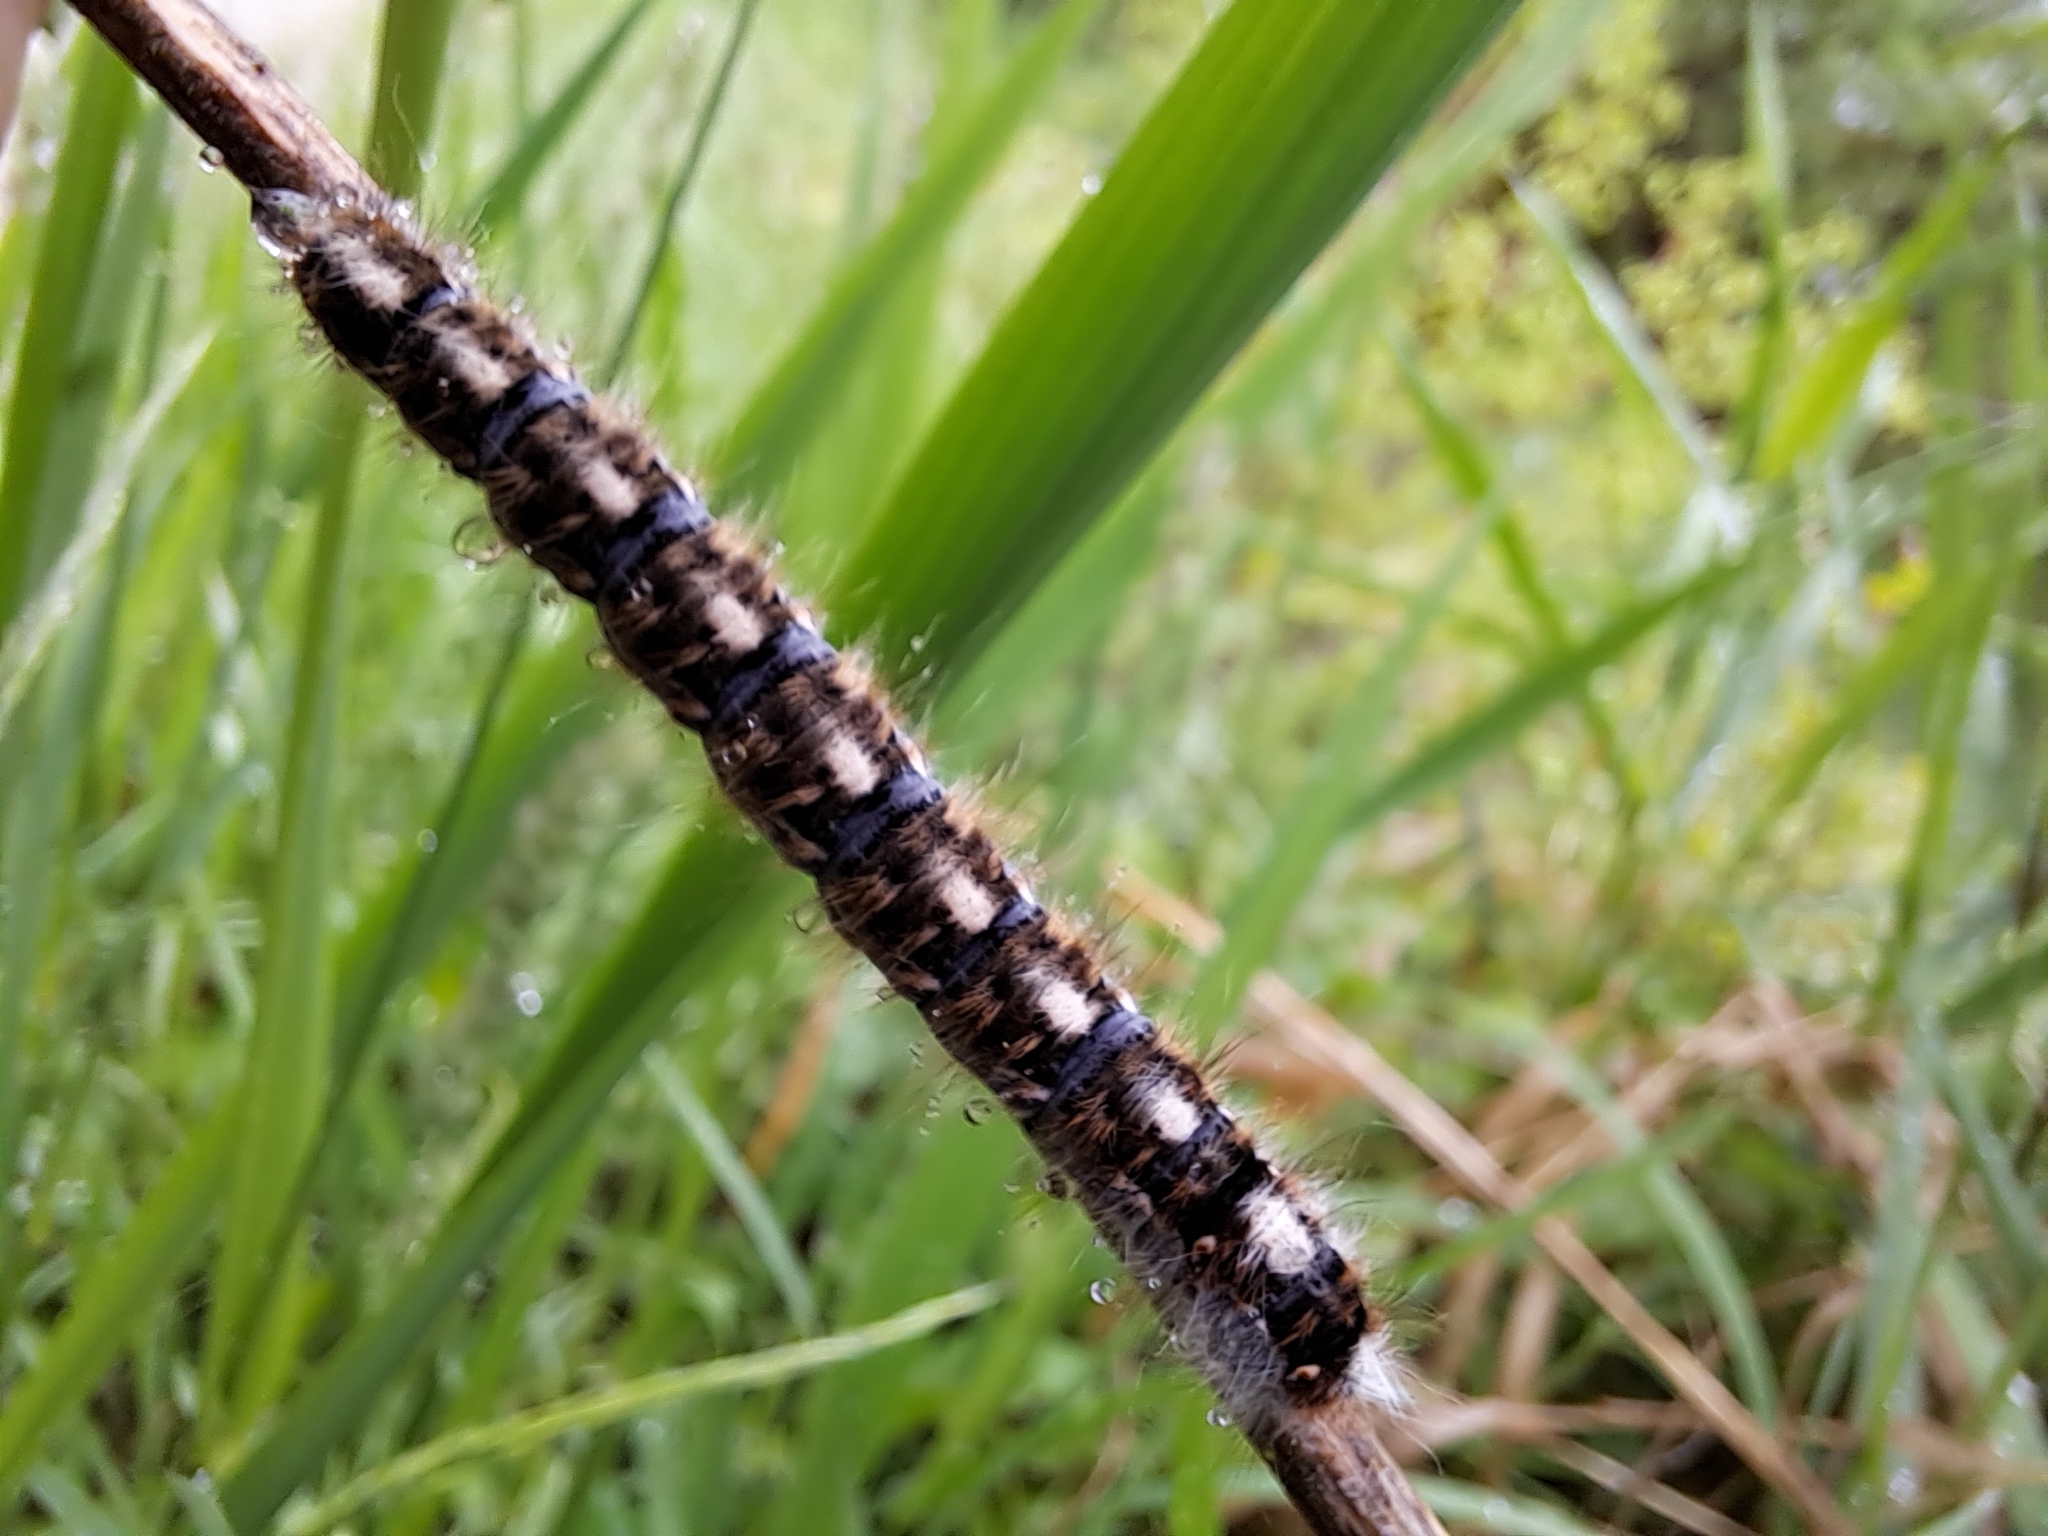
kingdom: Animalia
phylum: Arthropoda
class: Insecta
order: Lepidoptera
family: Lasiocampidae
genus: Lasiocampa
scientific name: Lasiocampa quercus
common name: Oak eggar
